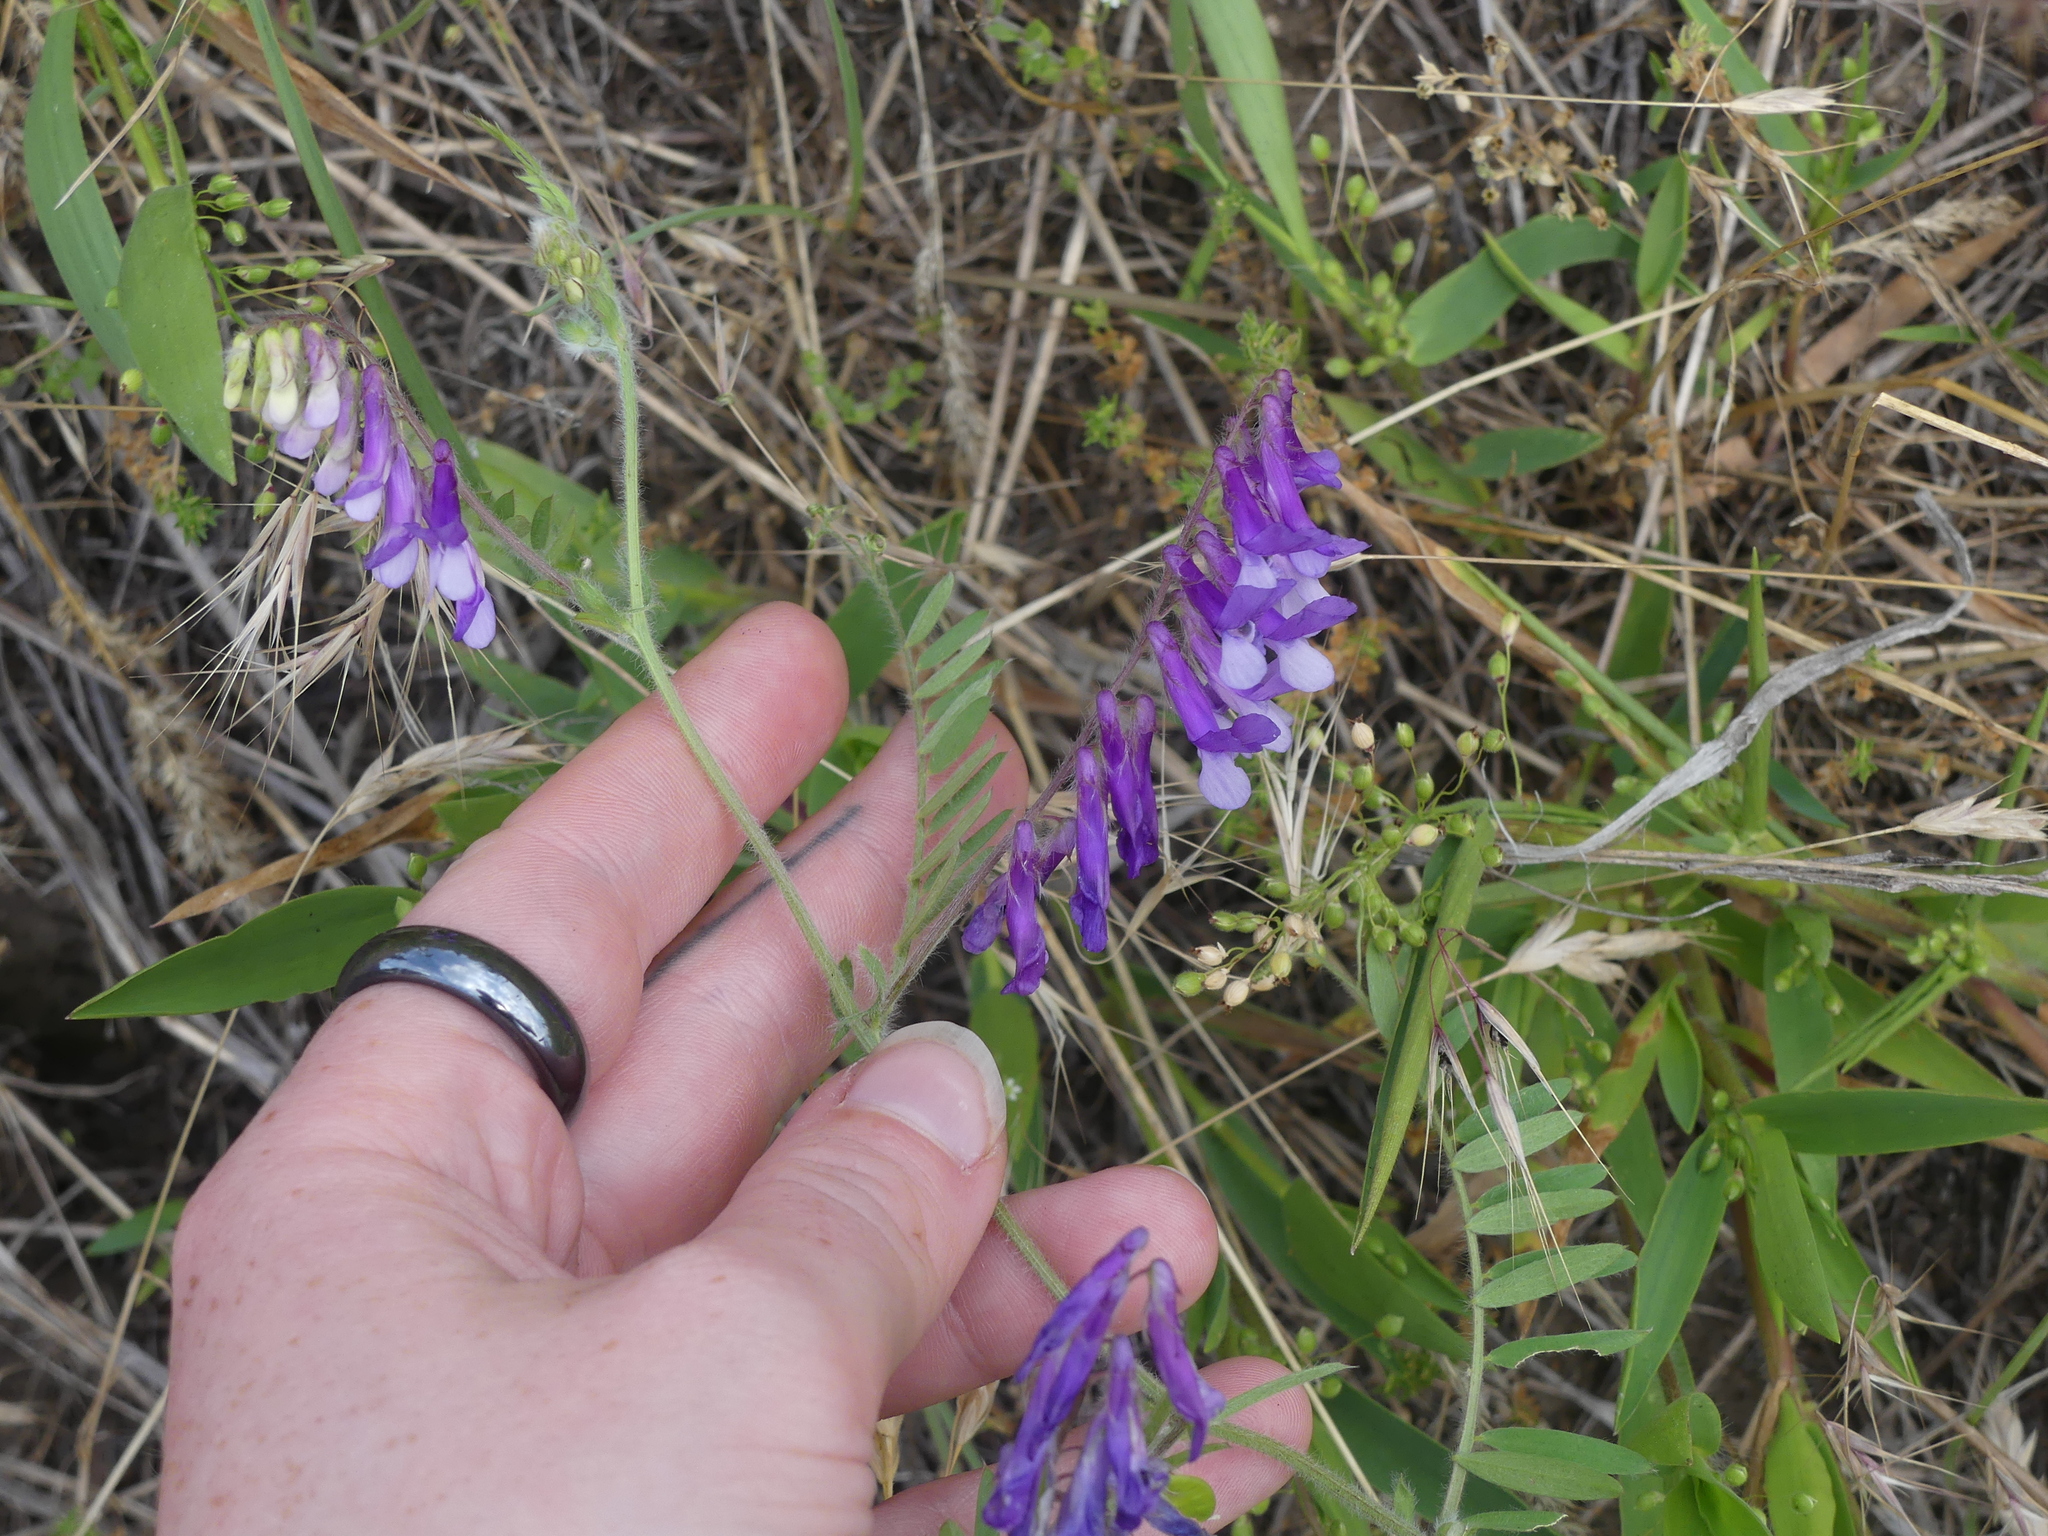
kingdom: Plantae
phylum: Tracheophyta
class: Magnoliopsida
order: Fabales
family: Fabaceae
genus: Vicia
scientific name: Vicia villosa
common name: Fodder vetch
